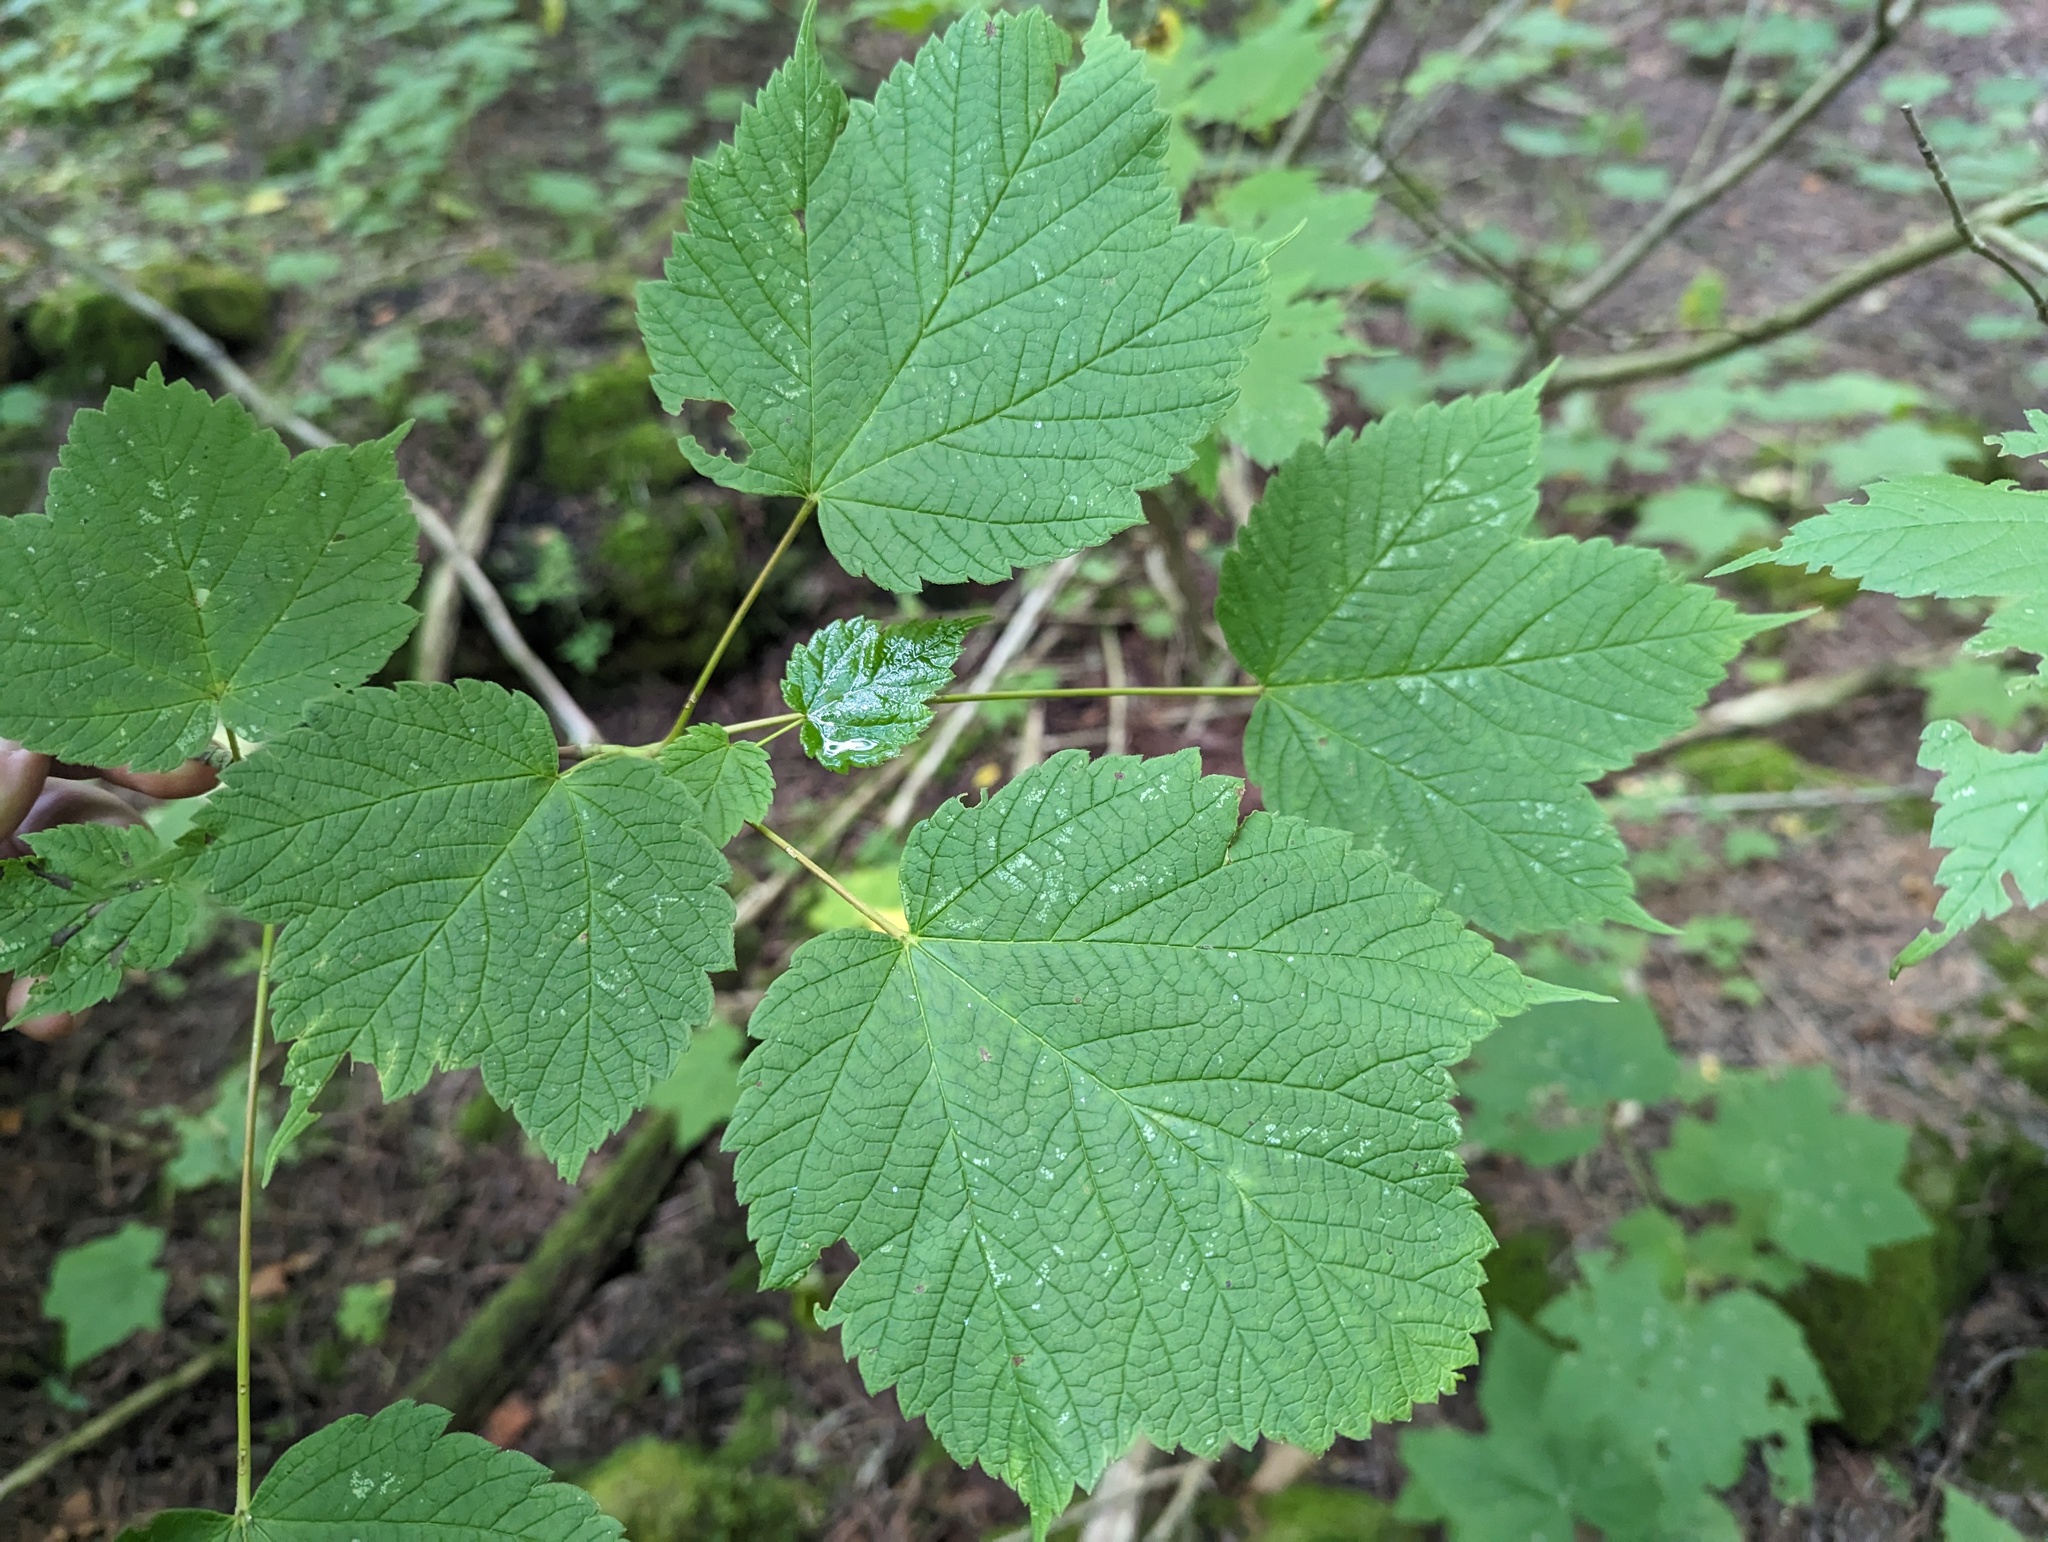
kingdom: Plantae
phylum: Tracheophyta
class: Magnoliopsida
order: Sapindales
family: Sapindaceae
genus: Acer
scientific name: Acer spicatum
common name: Mountain maple
